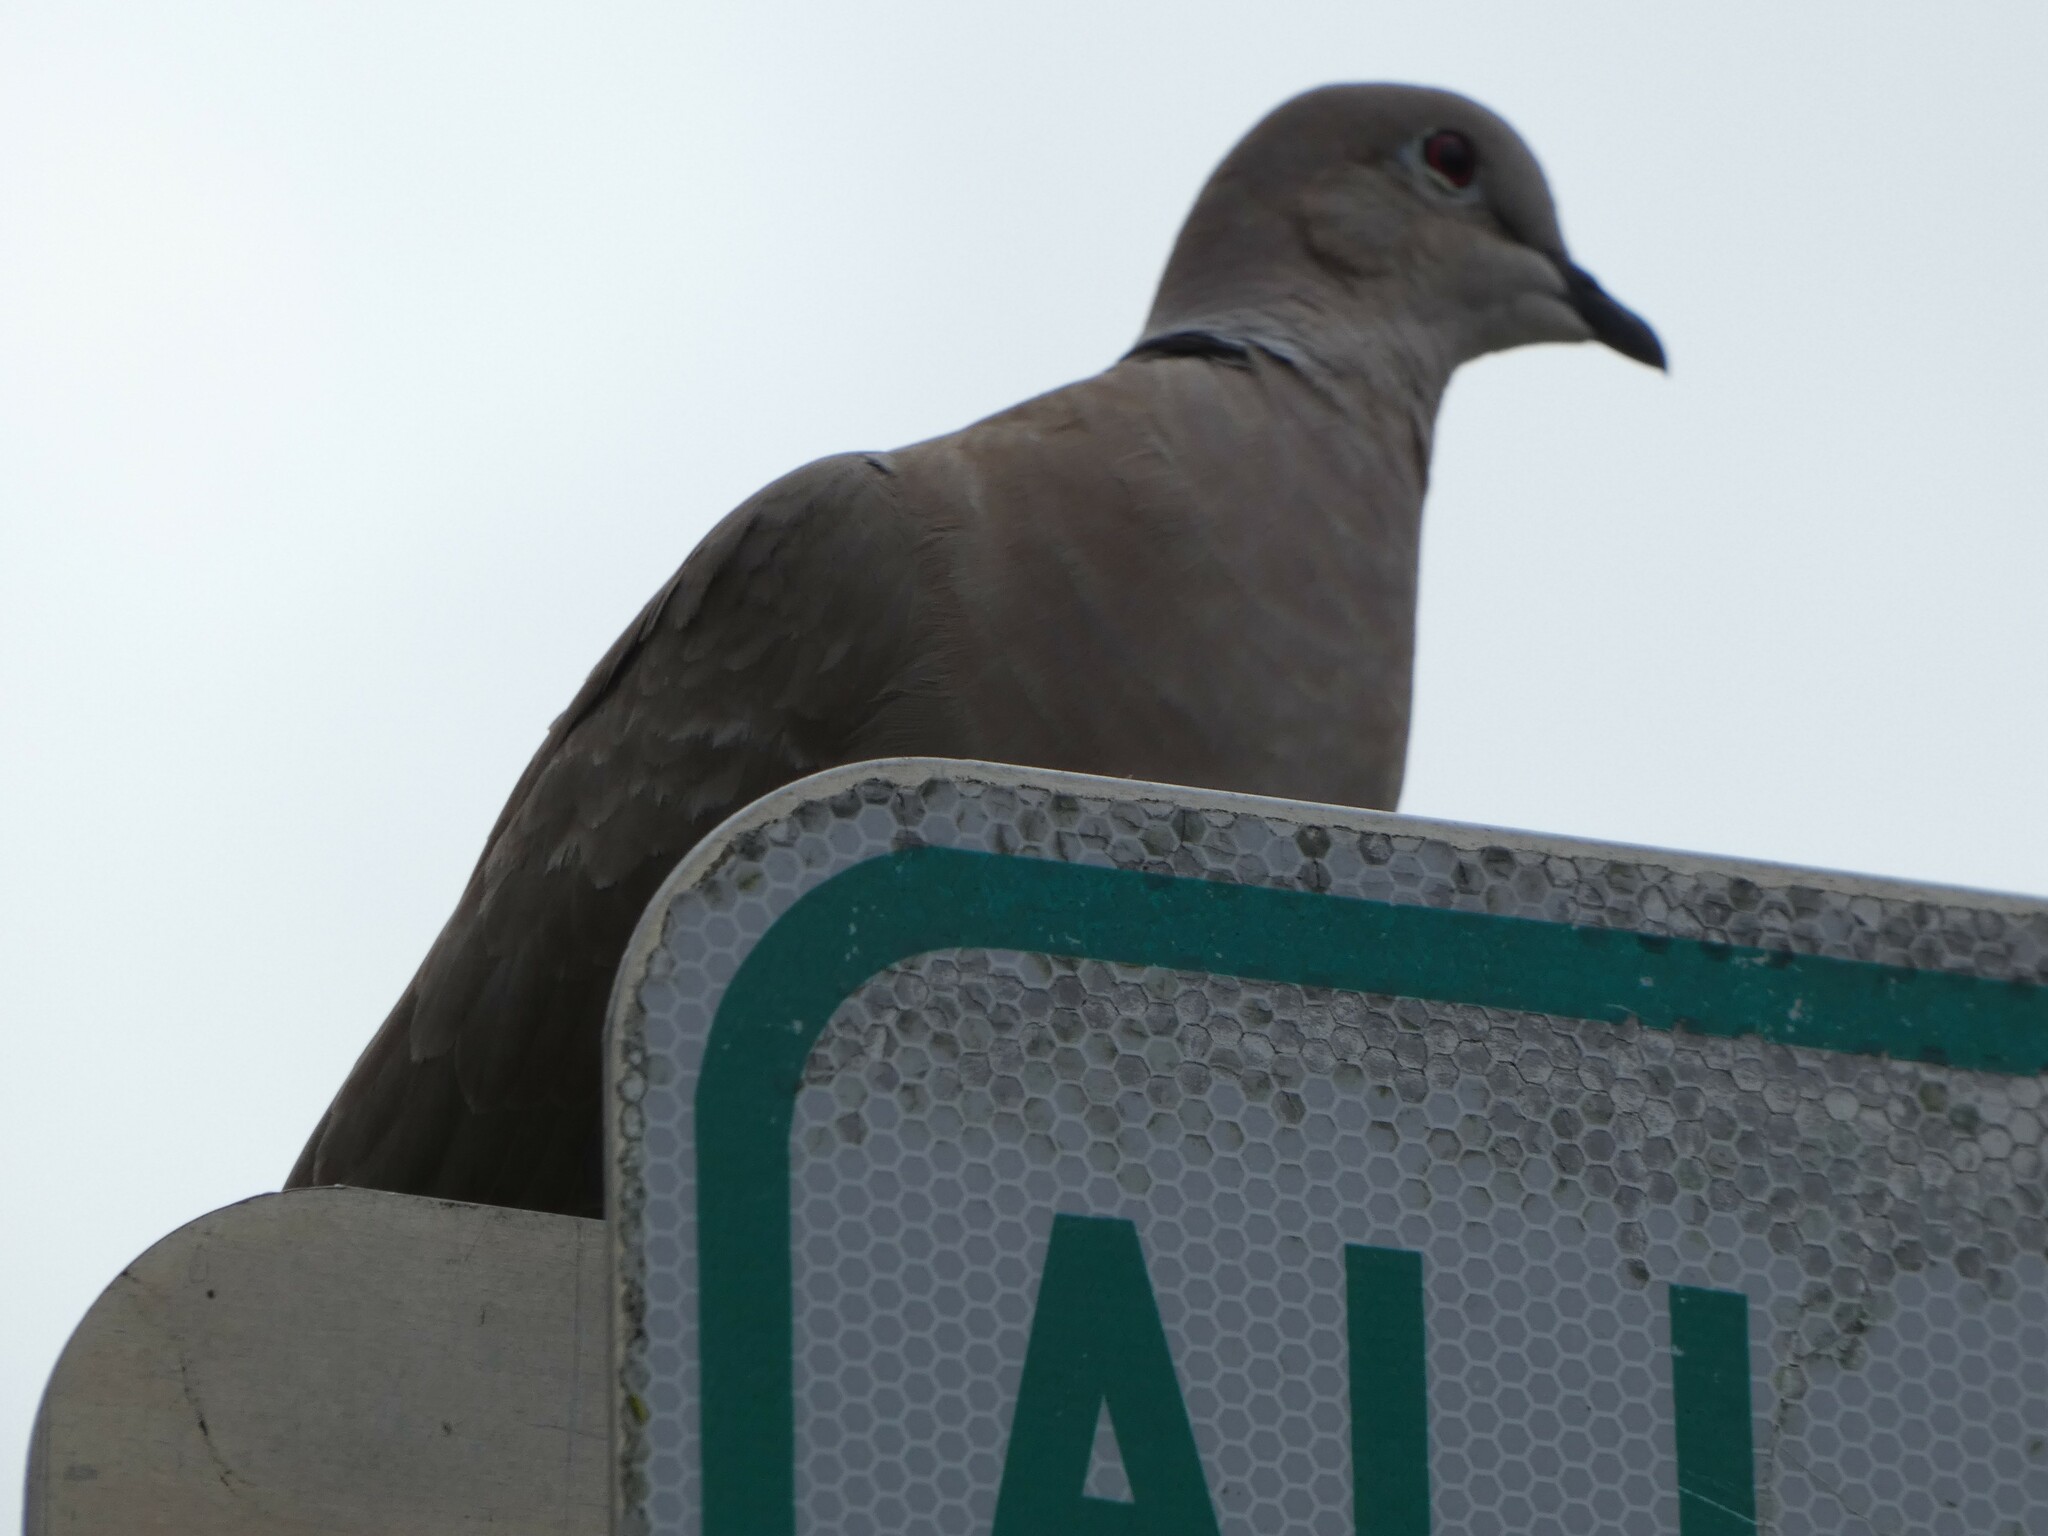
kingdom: Animalia
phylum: Chordata
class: Aves
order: Columbiformes
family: Columbidae
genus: Streptopelia
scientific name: Streptopelia decaocto
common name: Eurasian collared dove
